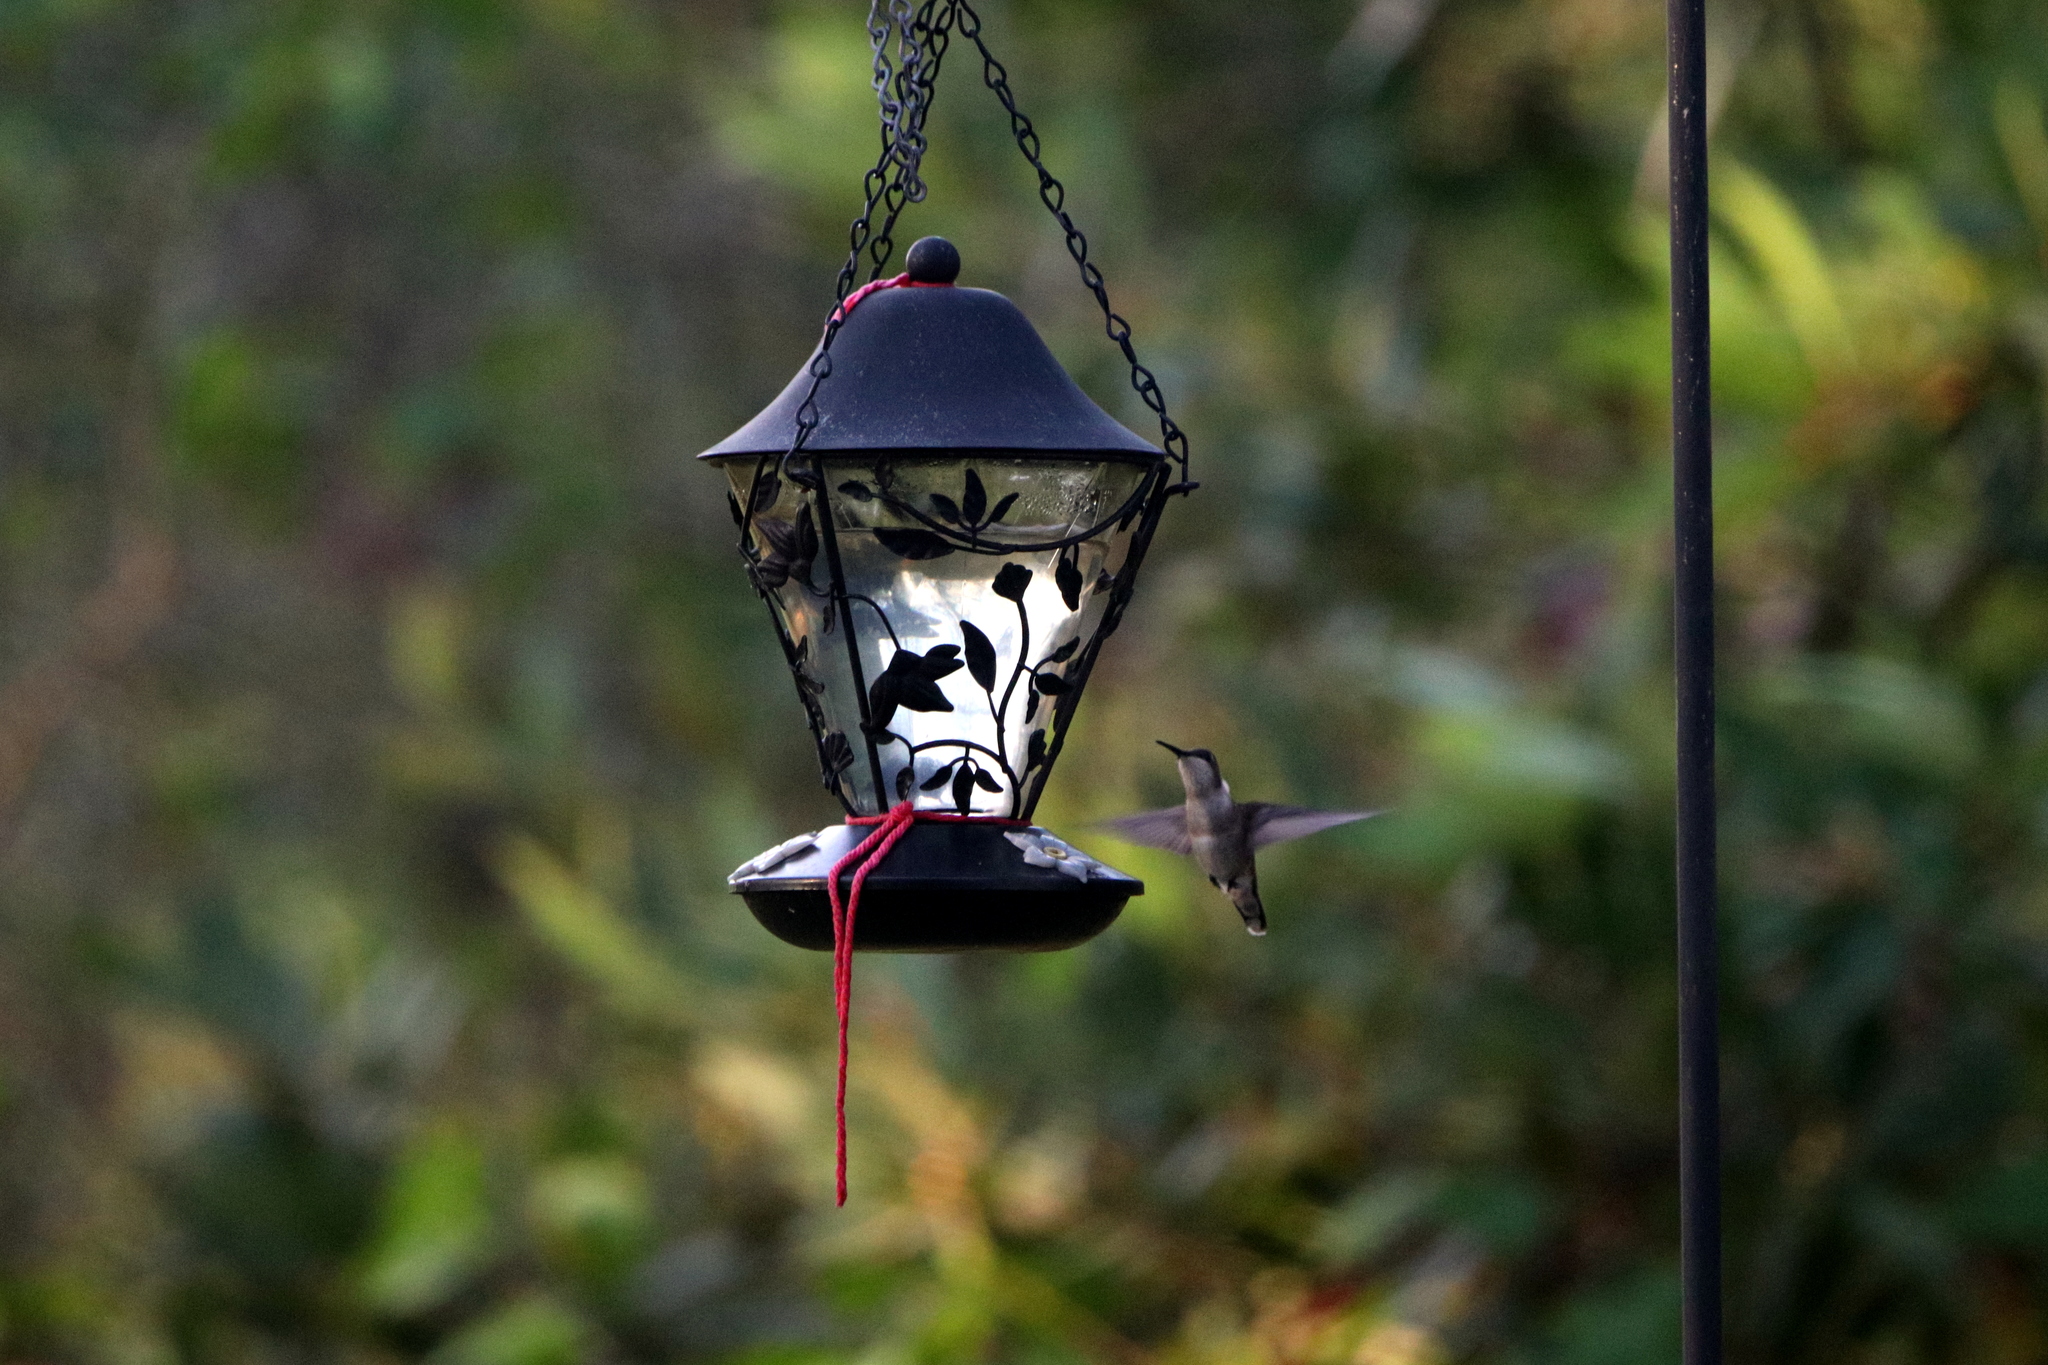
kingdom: Animalia
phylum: Chordata
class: Aves
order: Apodiformes
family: Trochilidae
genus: Archilochus
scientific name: Archilochus colubris
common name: Ruby-throated hummingbird
